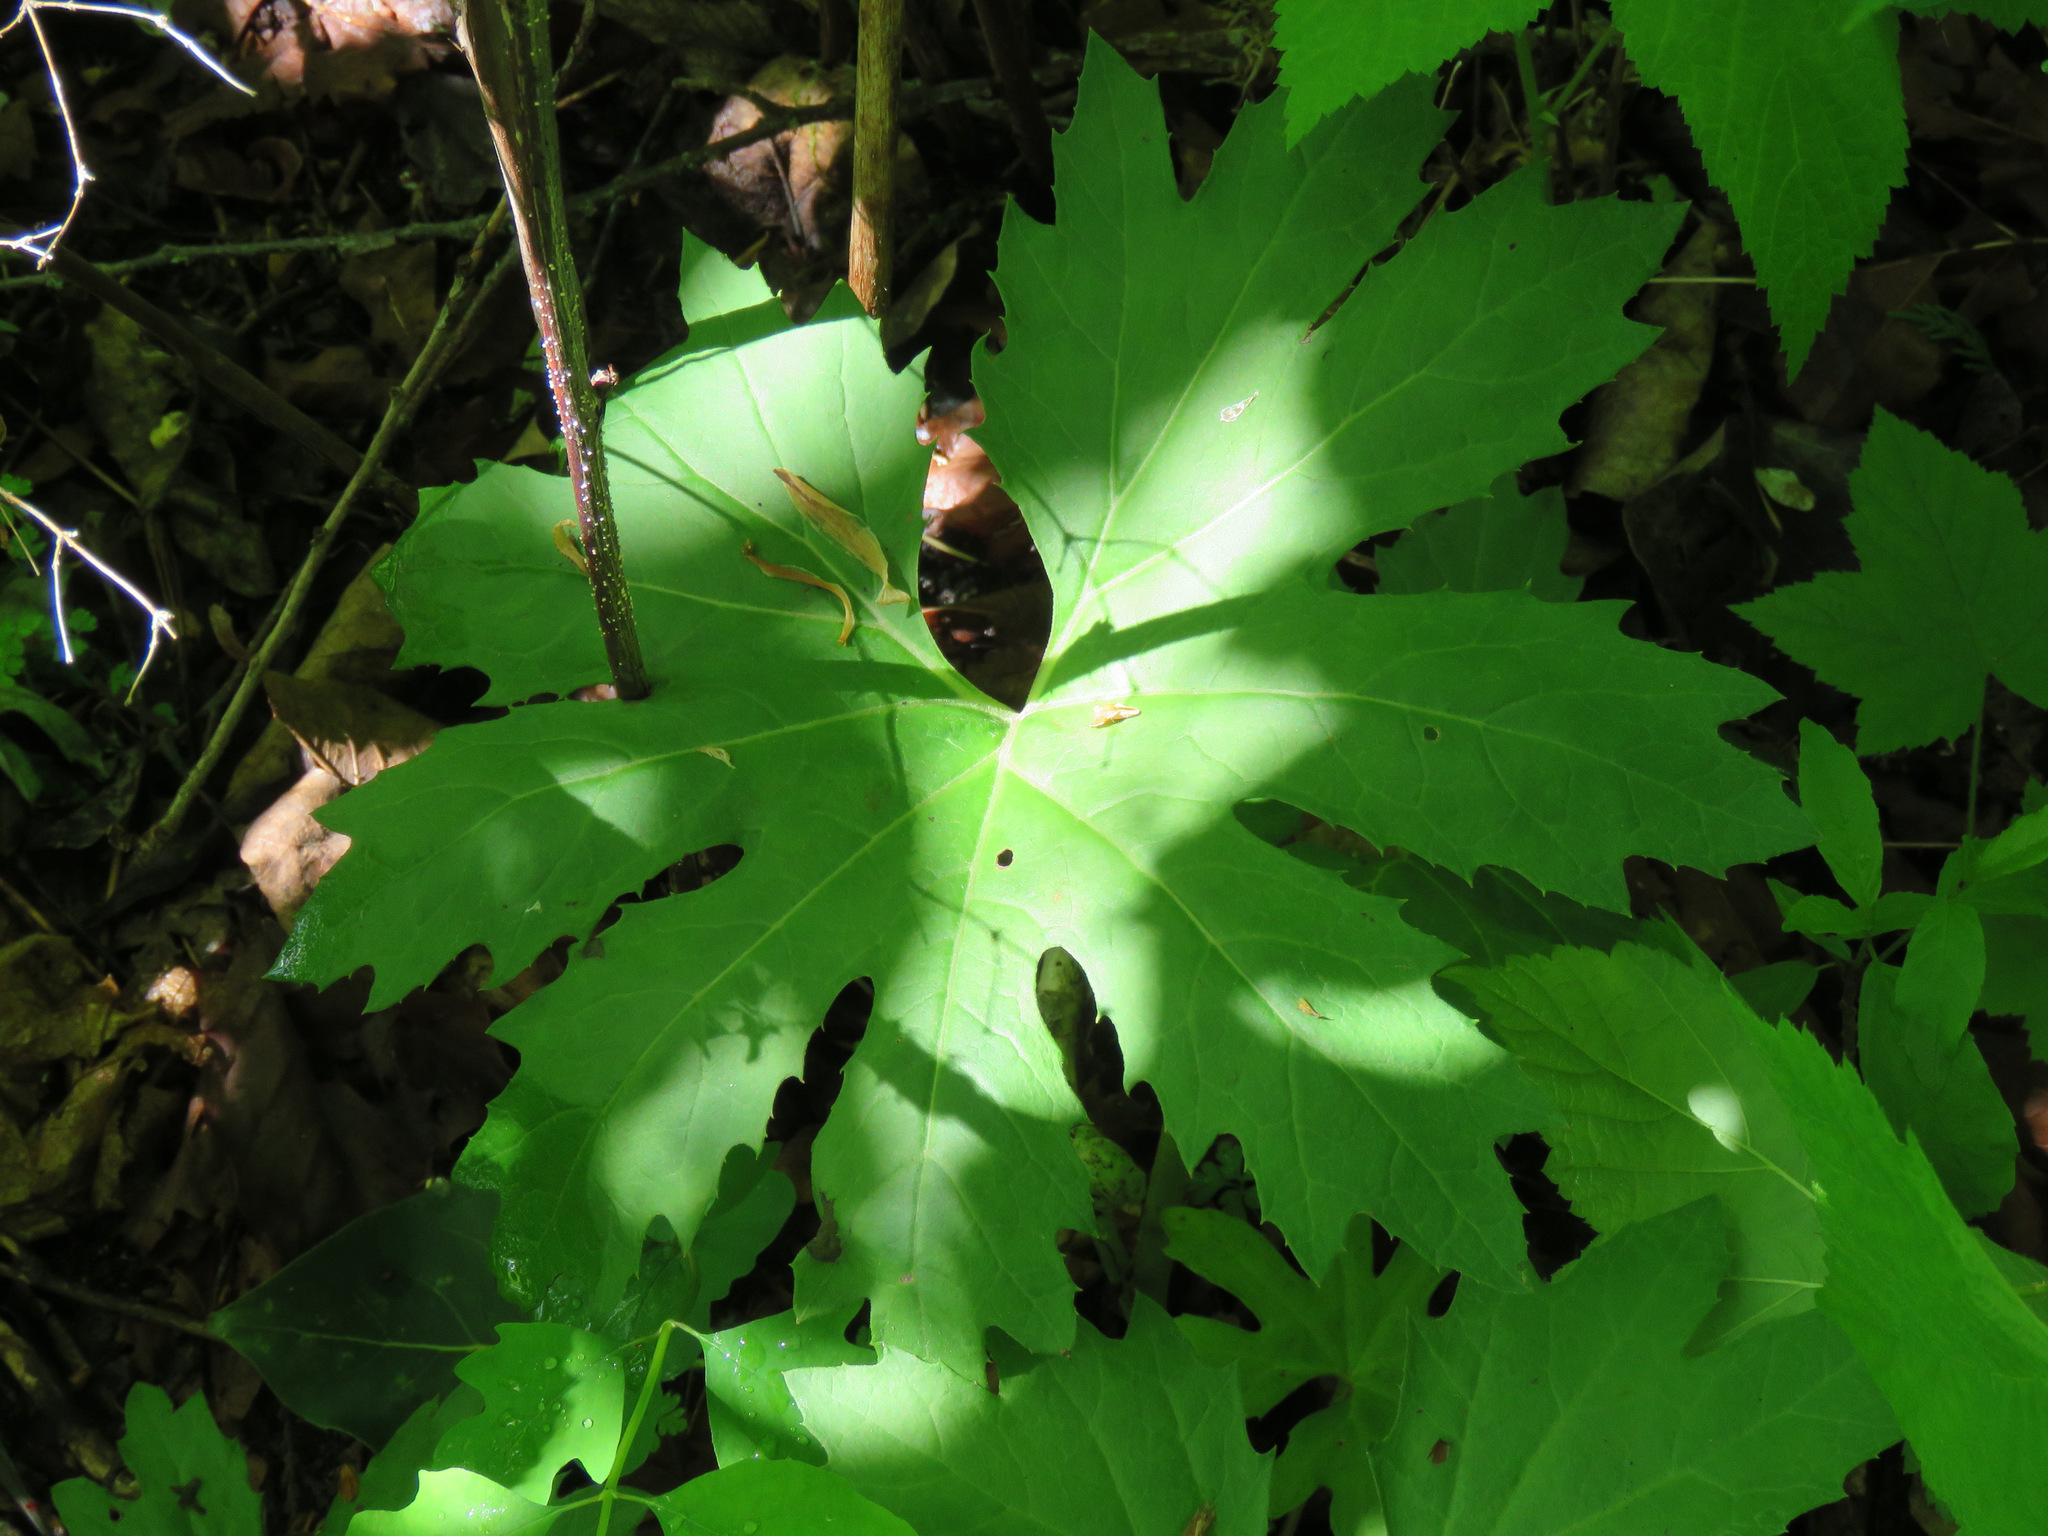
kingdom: Plantae
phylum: Tracheophyta
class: Magnoliopsida
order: Asterales
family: Asteraceae
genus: Petasites
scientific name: Petasites frigidus
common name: Arctic butterbur
